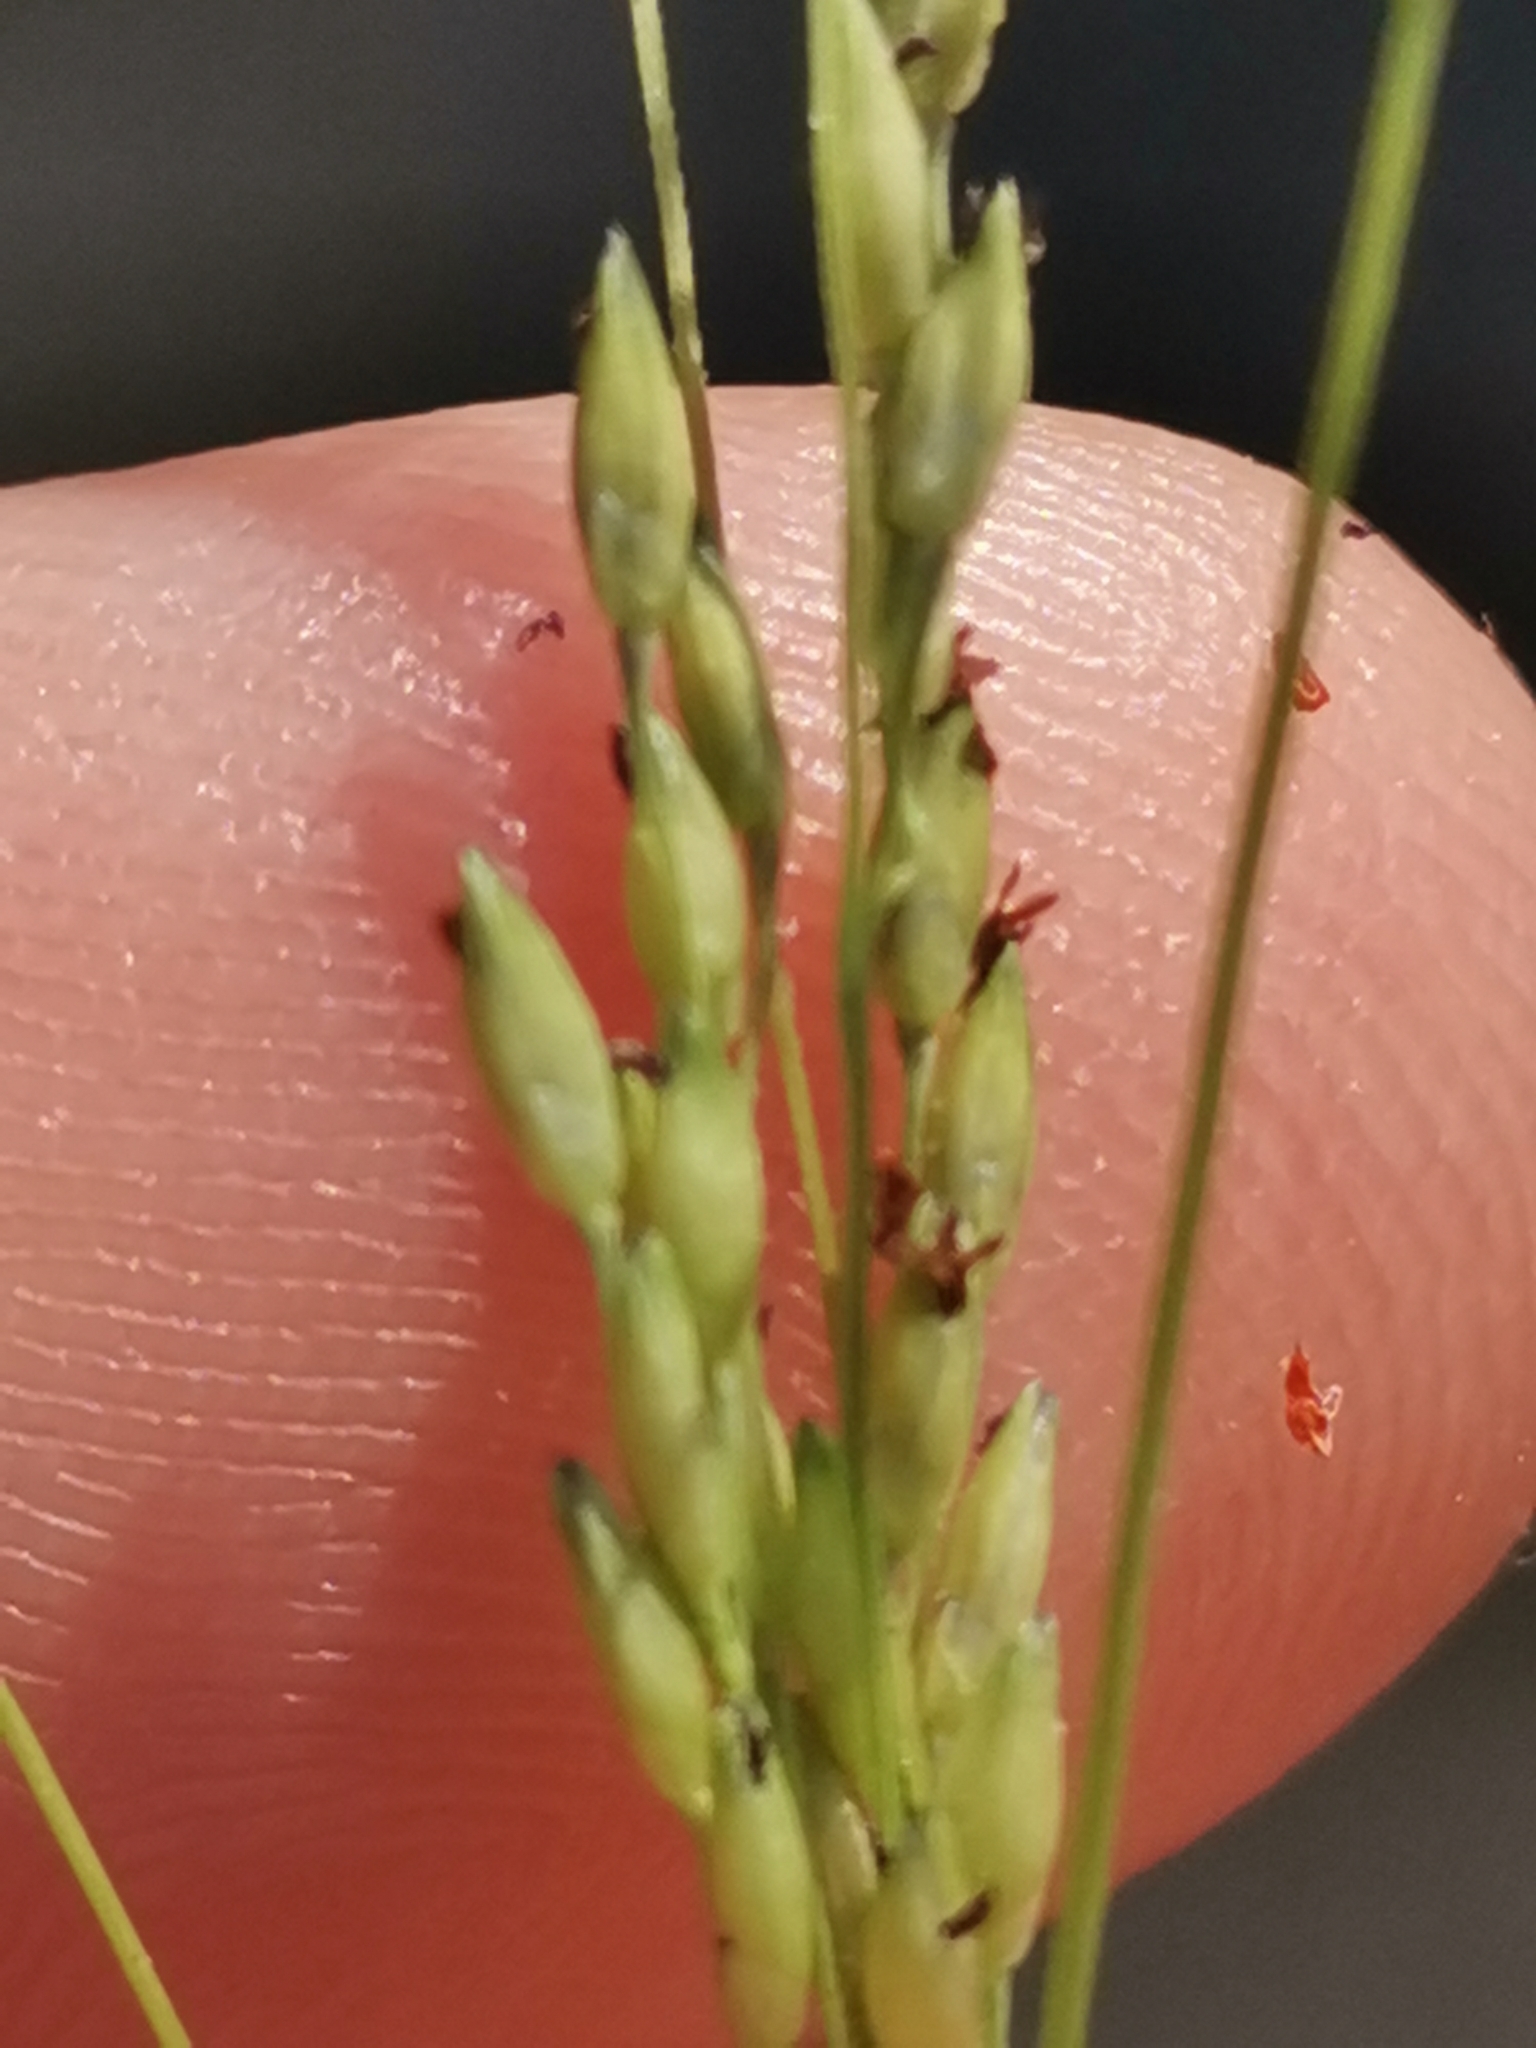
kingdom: Plantae
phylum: Tracheophyta
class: Liliopsida
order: Poales
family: Poaceae
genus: Panicum
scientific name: Panicum dichotomiflorum
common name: Autumn millet
